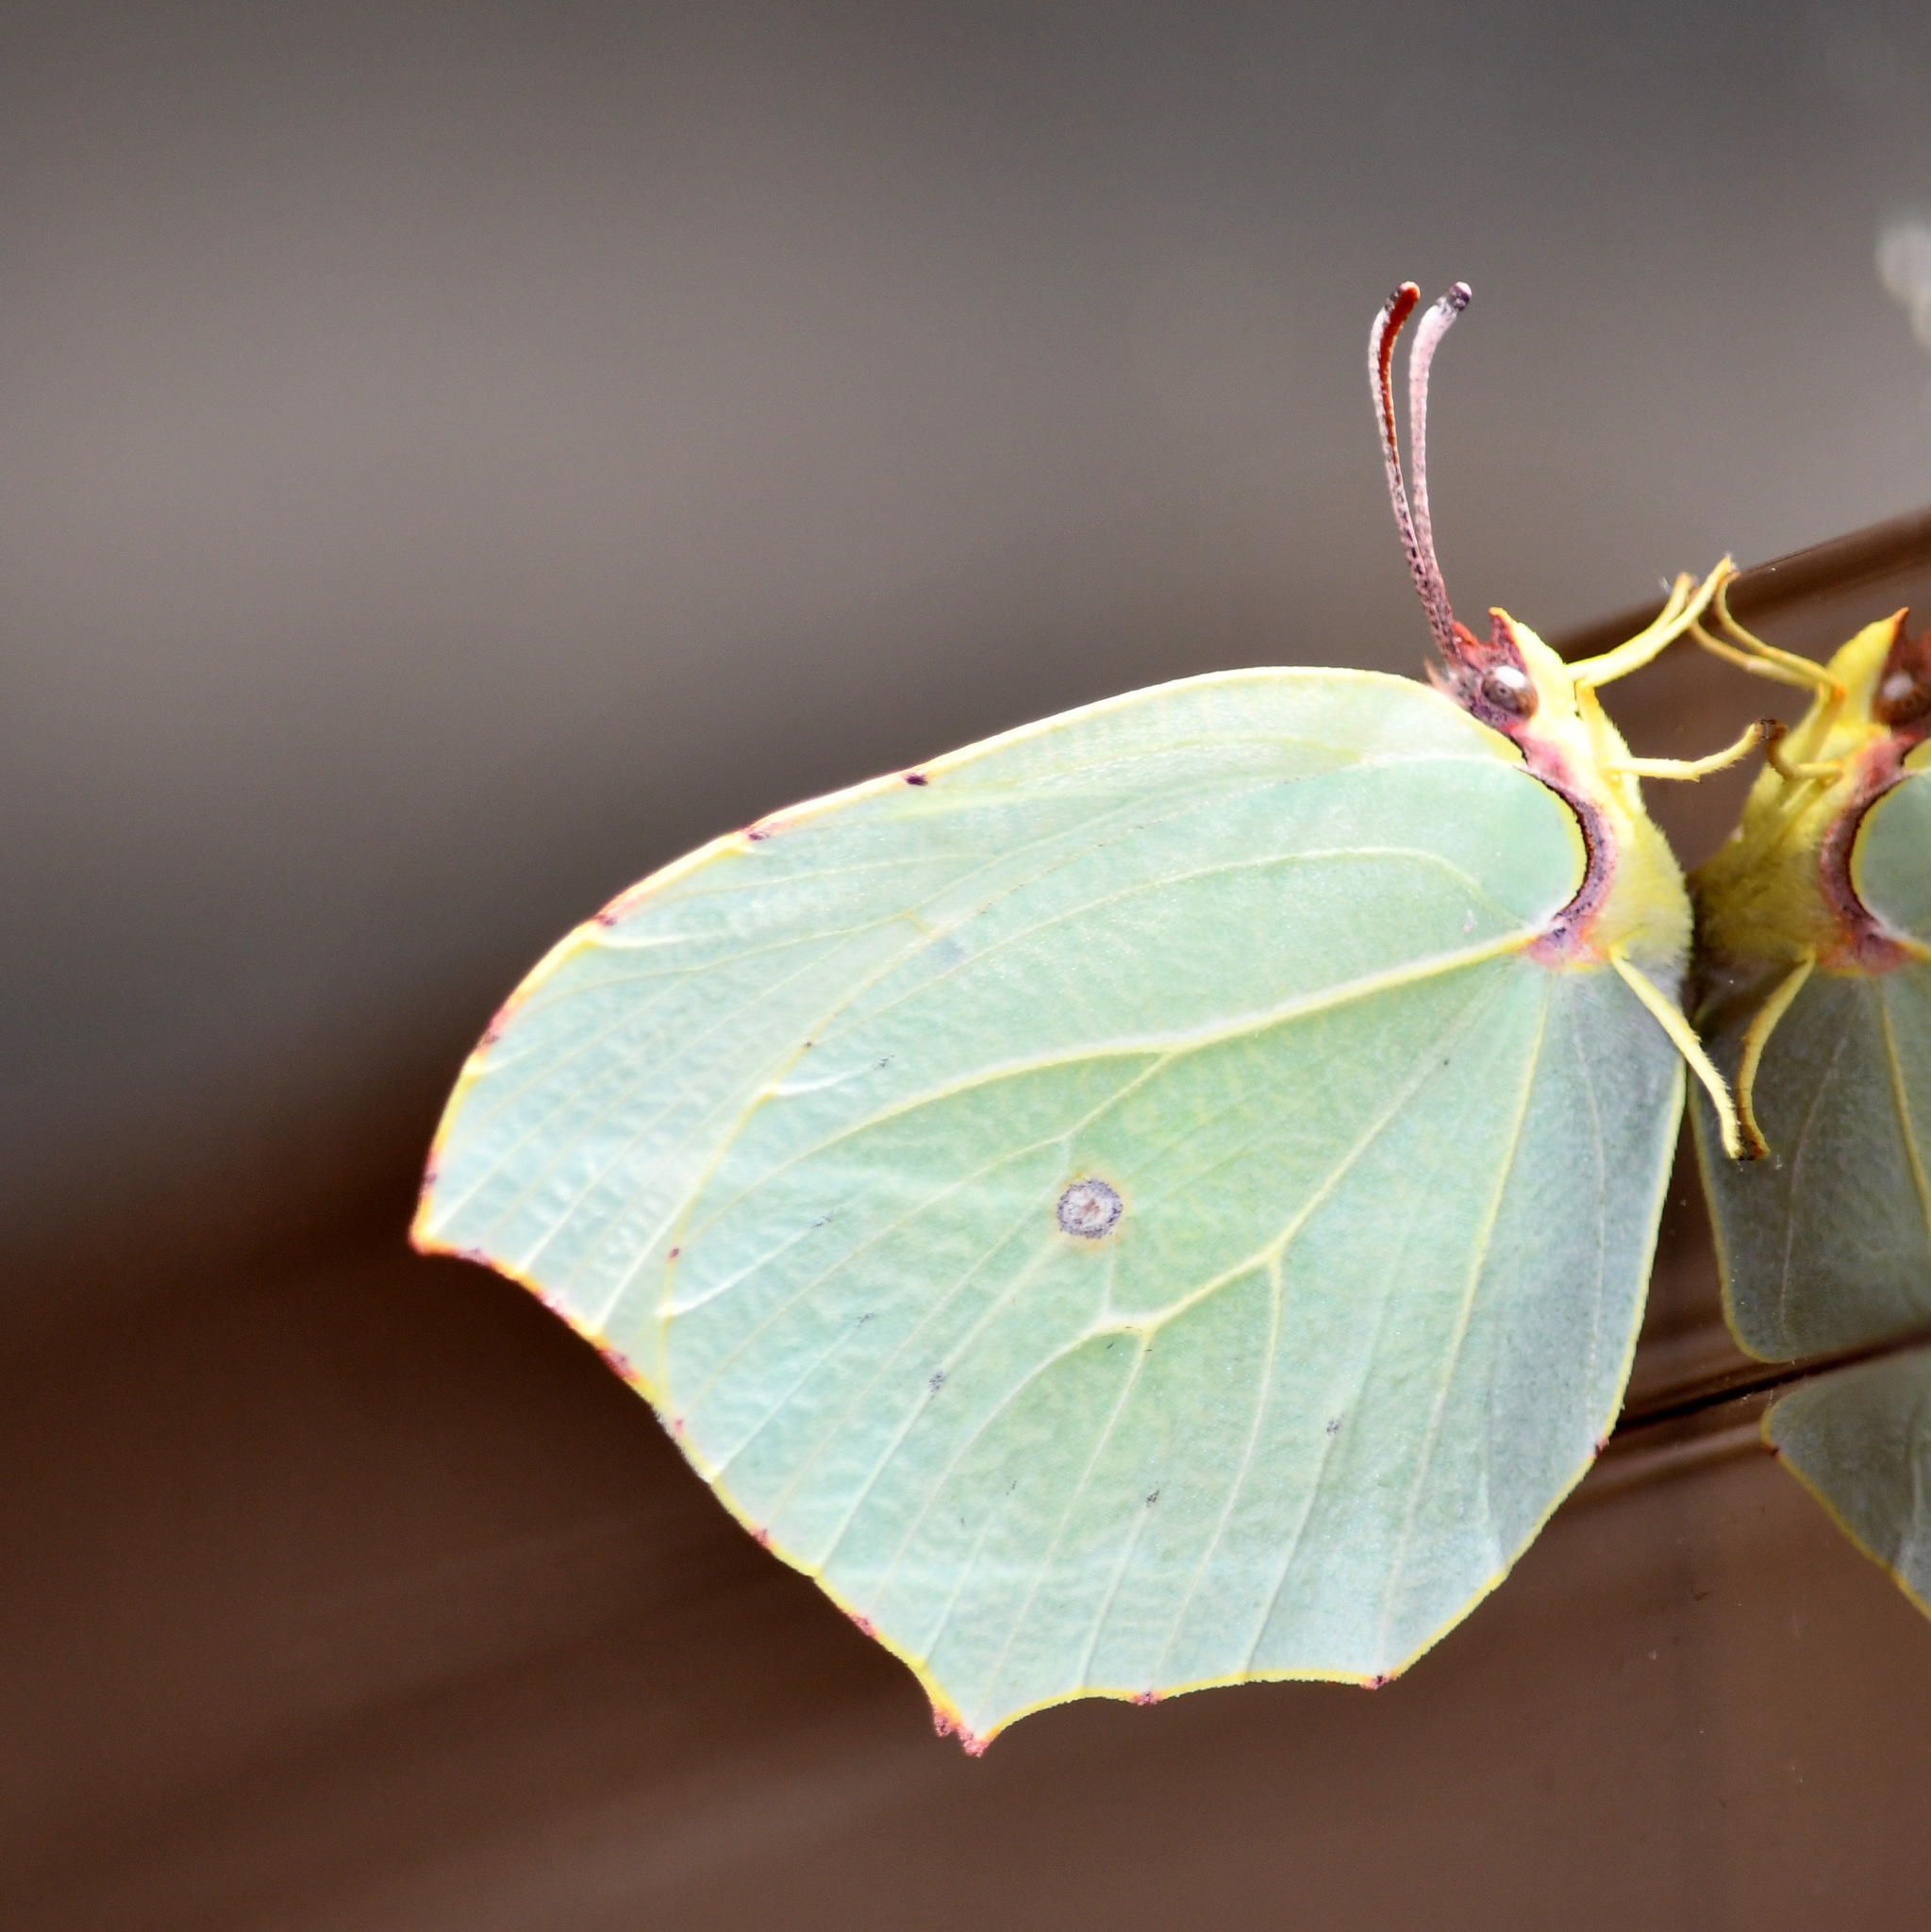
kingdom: Animalia
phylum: Arthropoda
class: Insecta
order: Lepidoptera
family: Pieridae
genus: Gonepteryx
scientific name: Gonepteryx cleopatra
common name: Cleopatra
